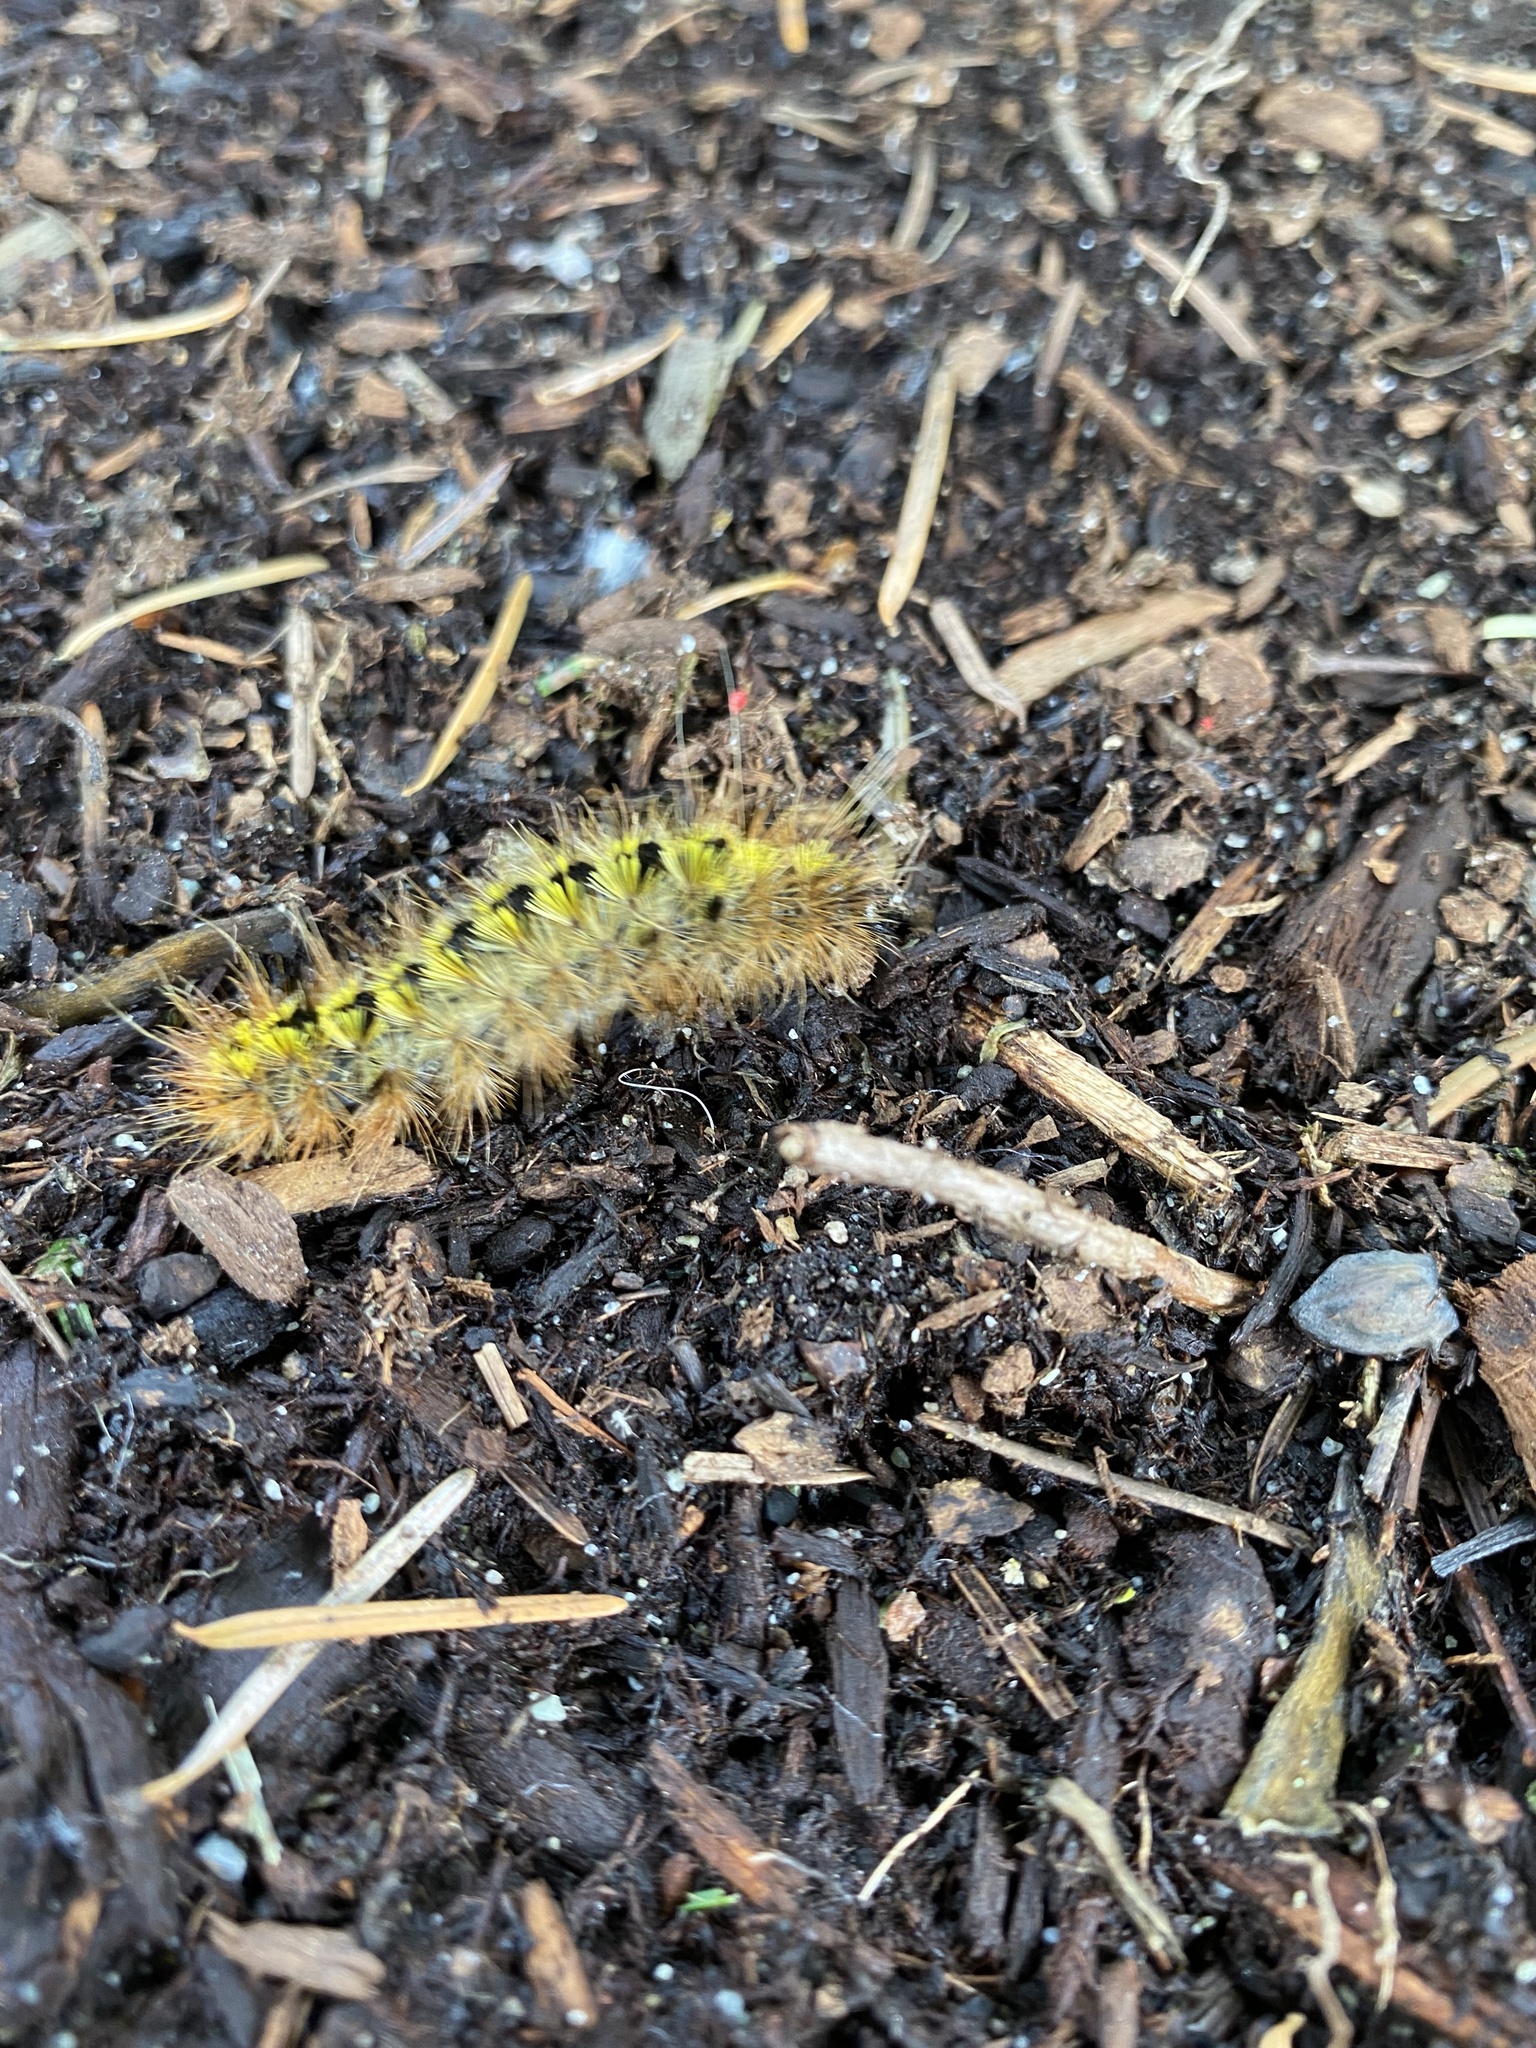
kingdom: Animalia
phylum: Arthropoda
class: Insecta
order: Lepidoptera
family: Erebidae
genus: Lophocampa
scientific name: Lophocampa argentata
